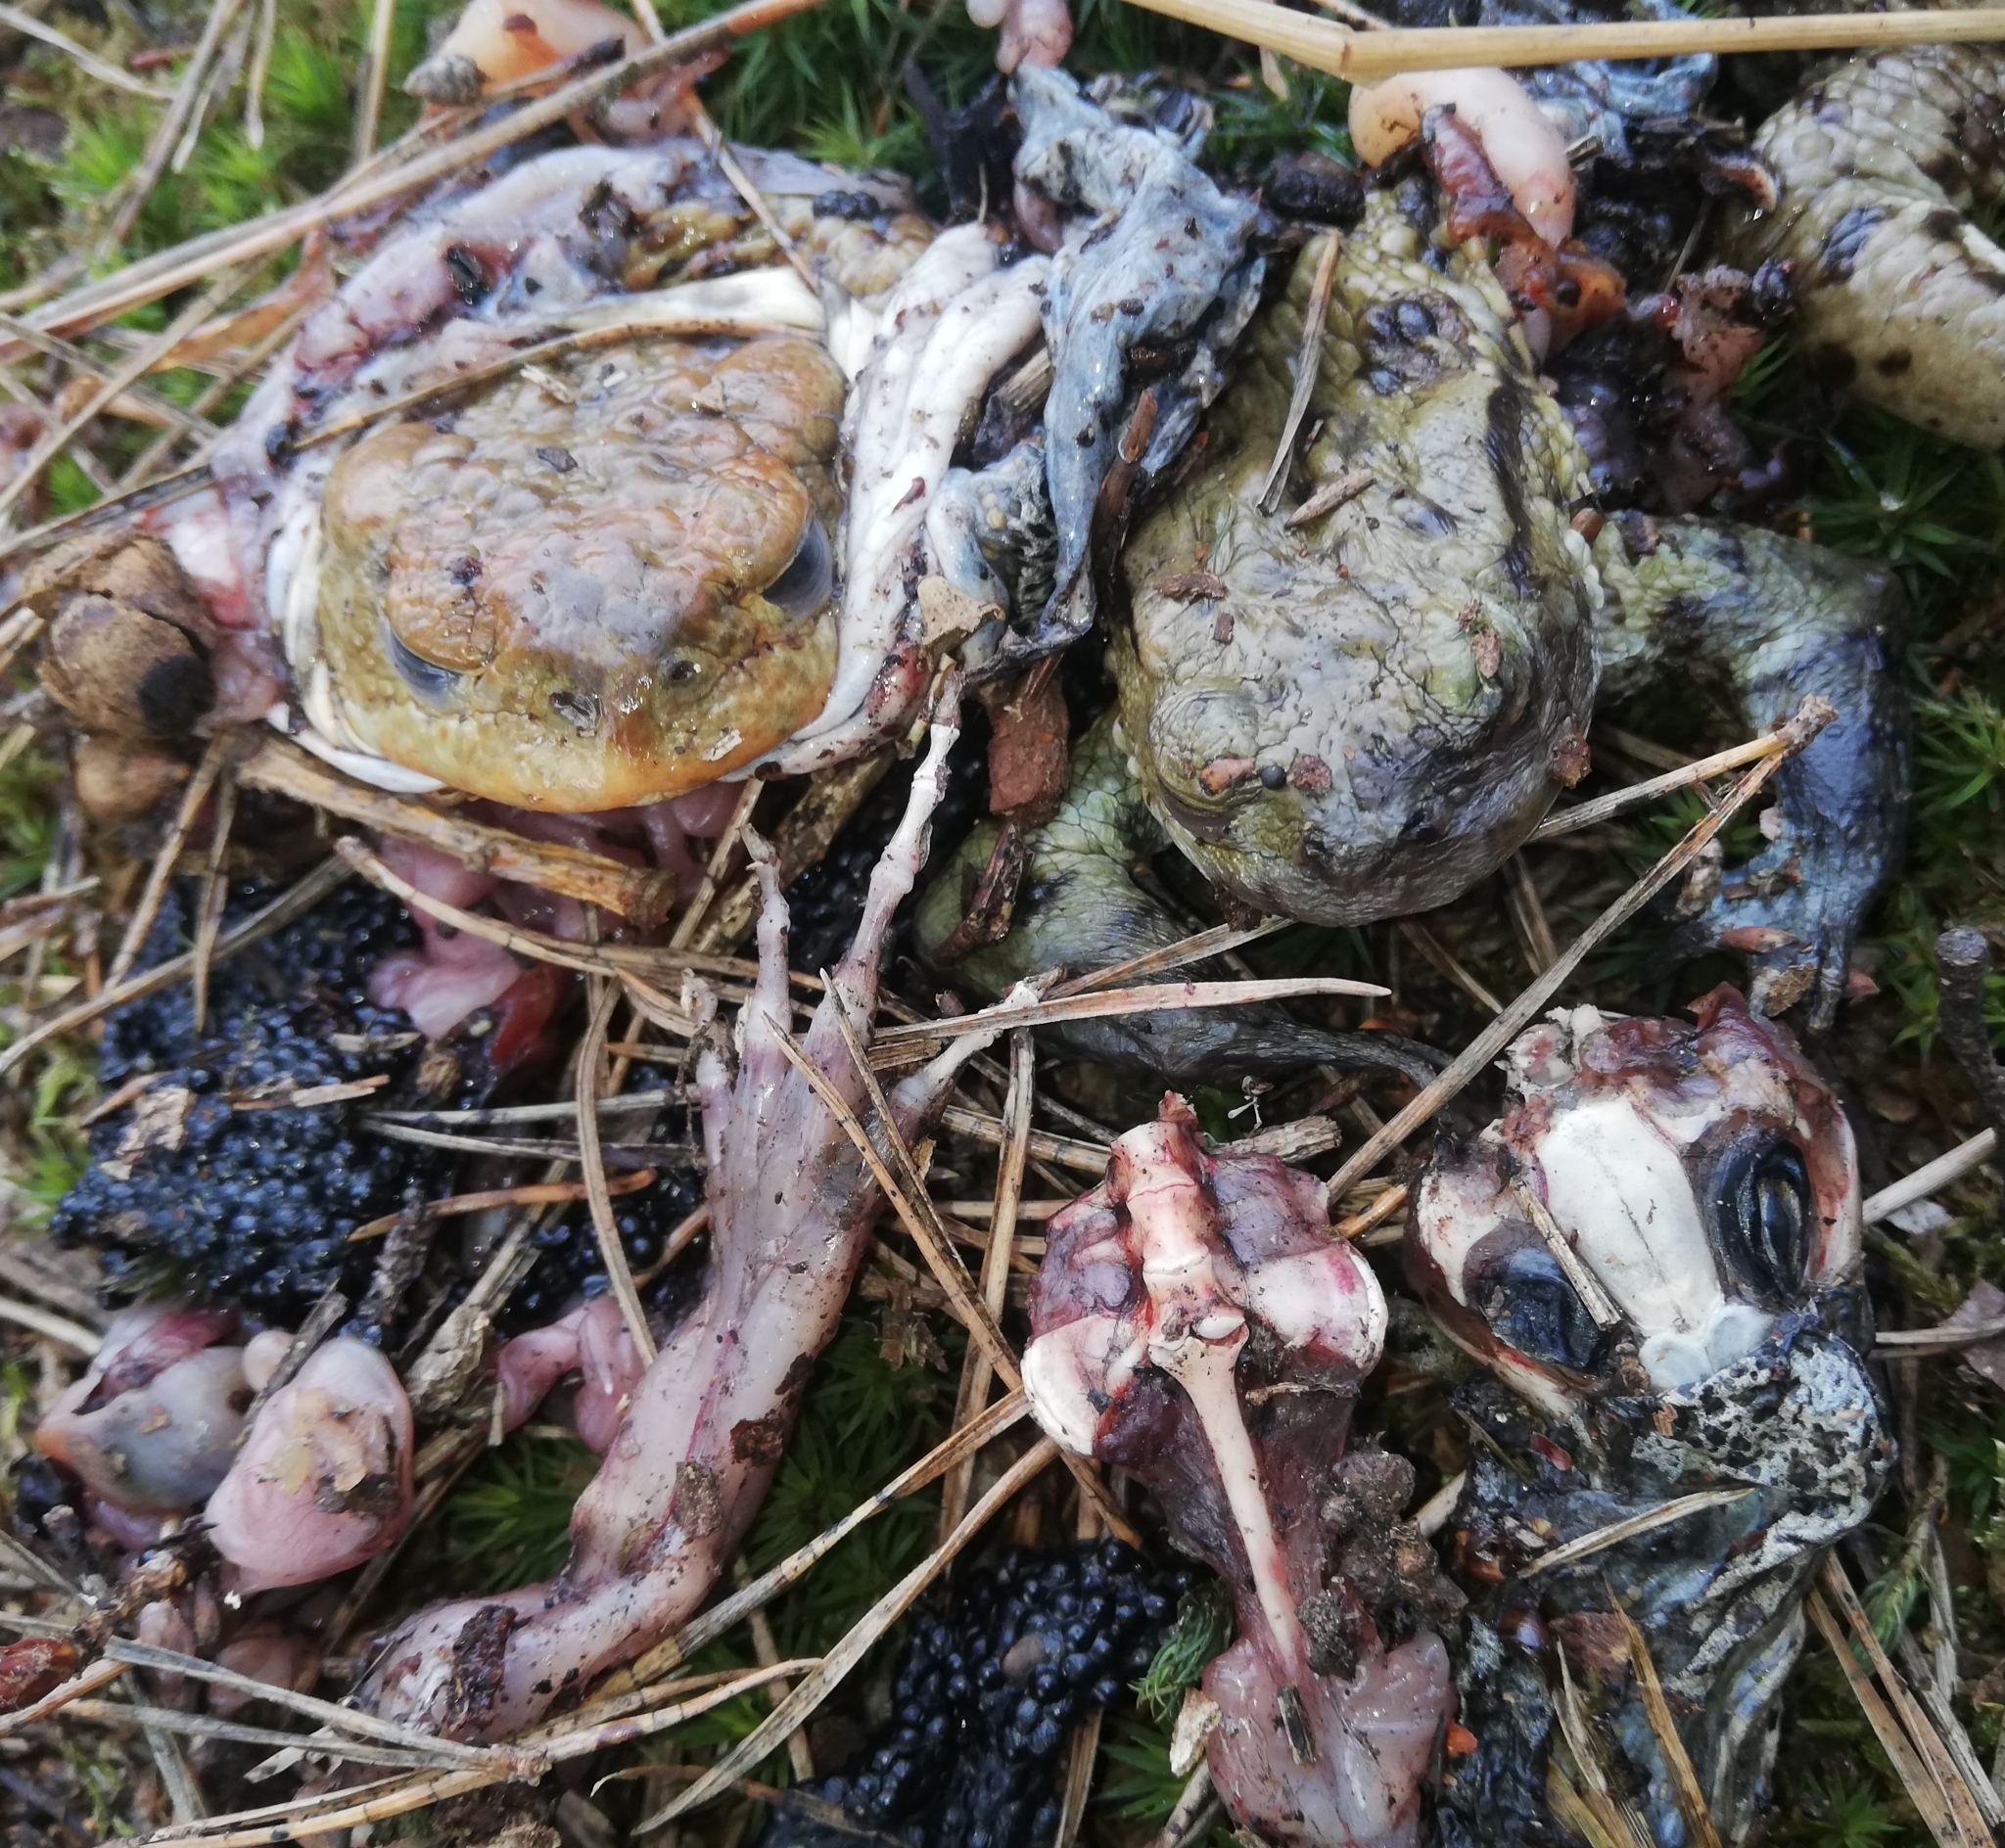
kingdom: Animalia
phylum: Chordata
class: Amphibia
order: Anura
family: Bufonidae
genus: Bufo
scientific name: Bufo bufo
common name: Common toad
